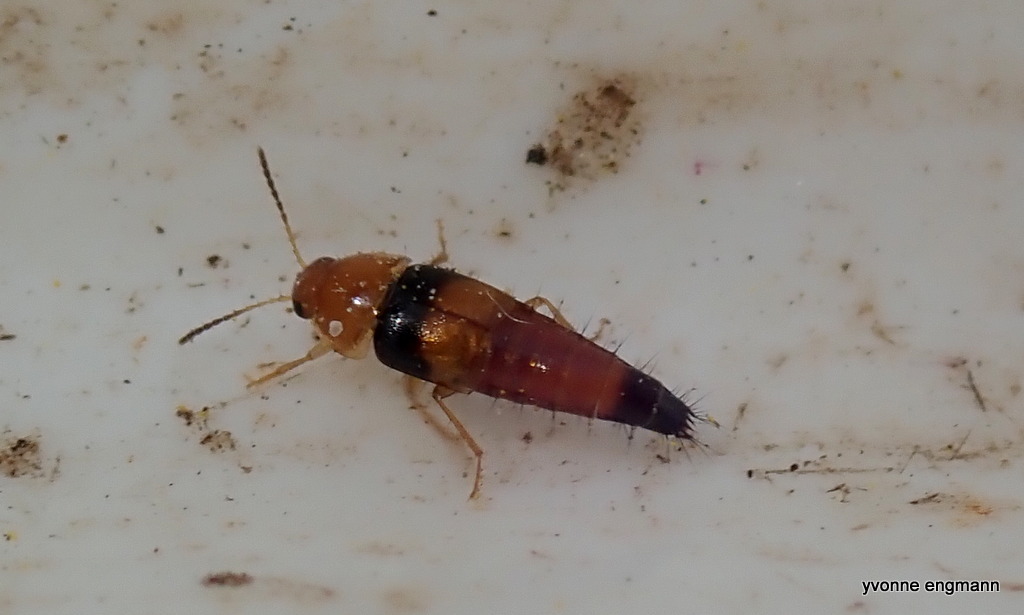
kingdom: Animalia
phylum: Arthropoda
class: Insecta
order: Coleoptera
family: Staphylinidae
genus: Tachyporus
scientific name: Tachyporus obtusus
